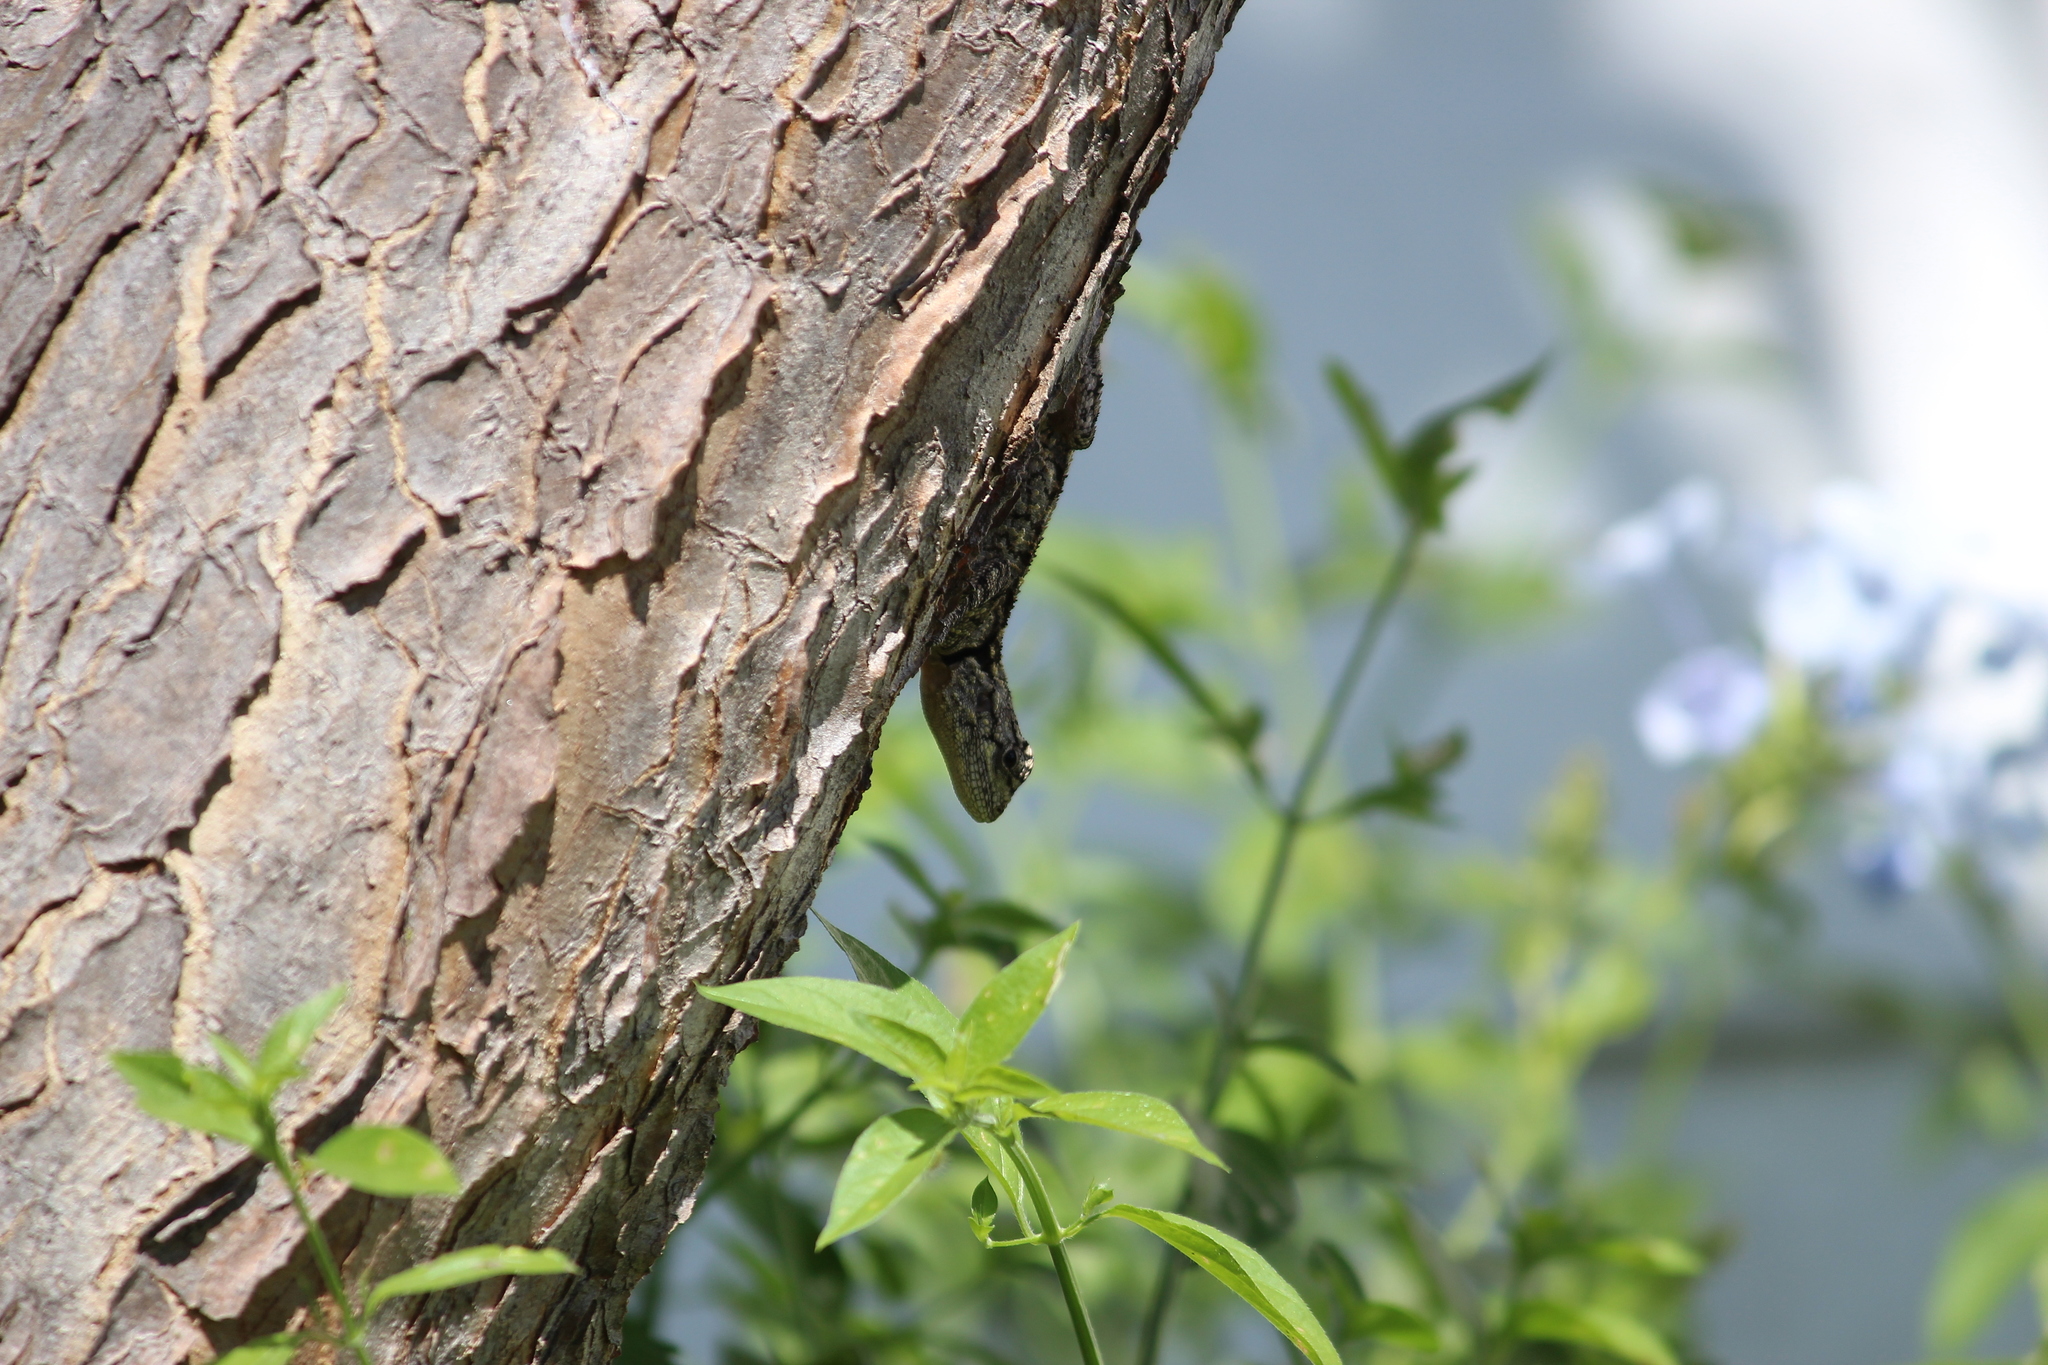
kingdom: Animalia
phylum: Chordata
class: Squamata
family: Agamidae
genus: Acanthocercus
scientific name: Acanthocercus atricollis
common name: Southern tree agama
